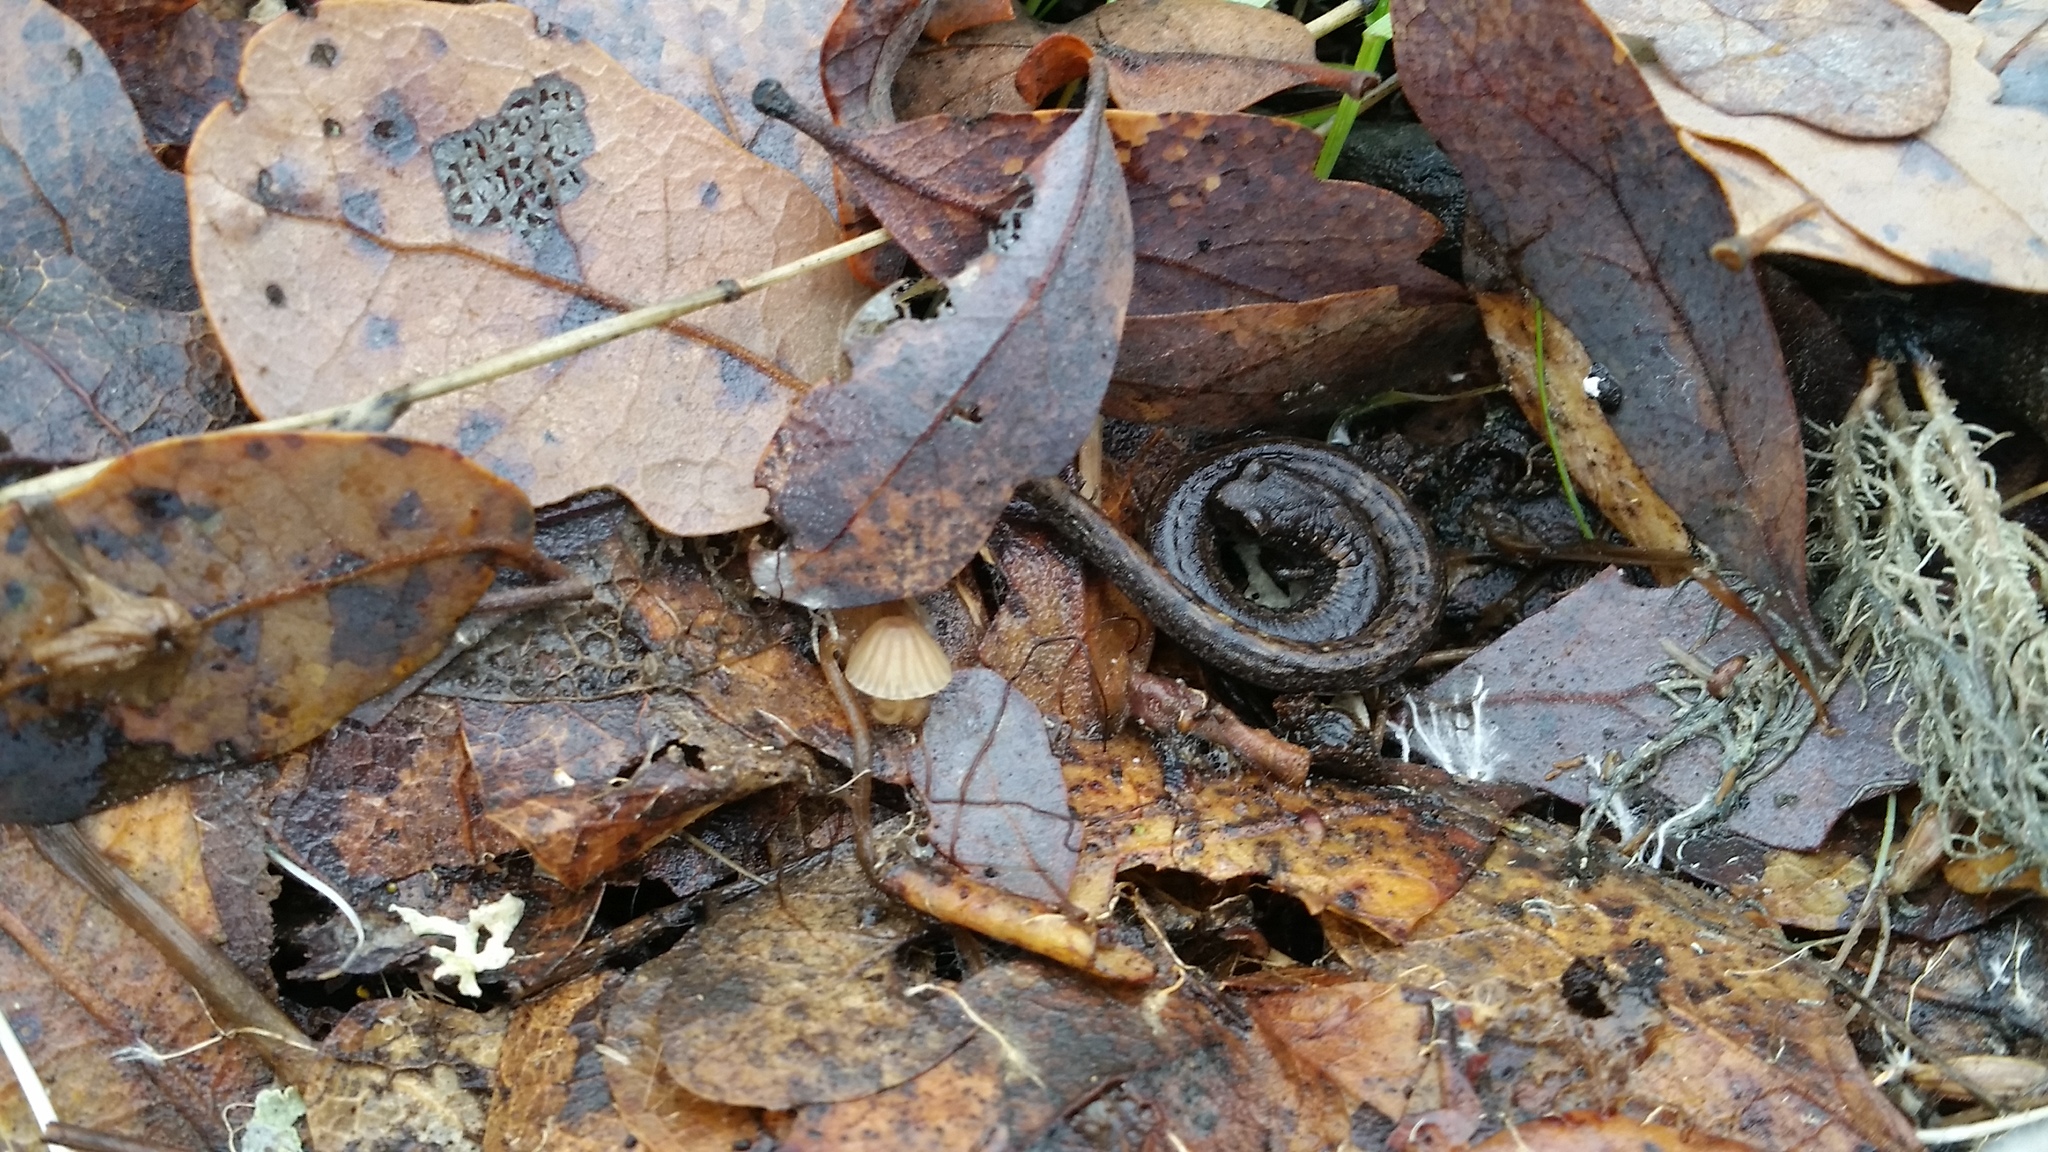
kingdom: Animalia
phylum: Chordata
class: Amphibia
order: Caudata
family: Plethodontidae
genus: Batrachoseps
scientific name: Batrachoseps attenuatus
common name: California slender salamander
